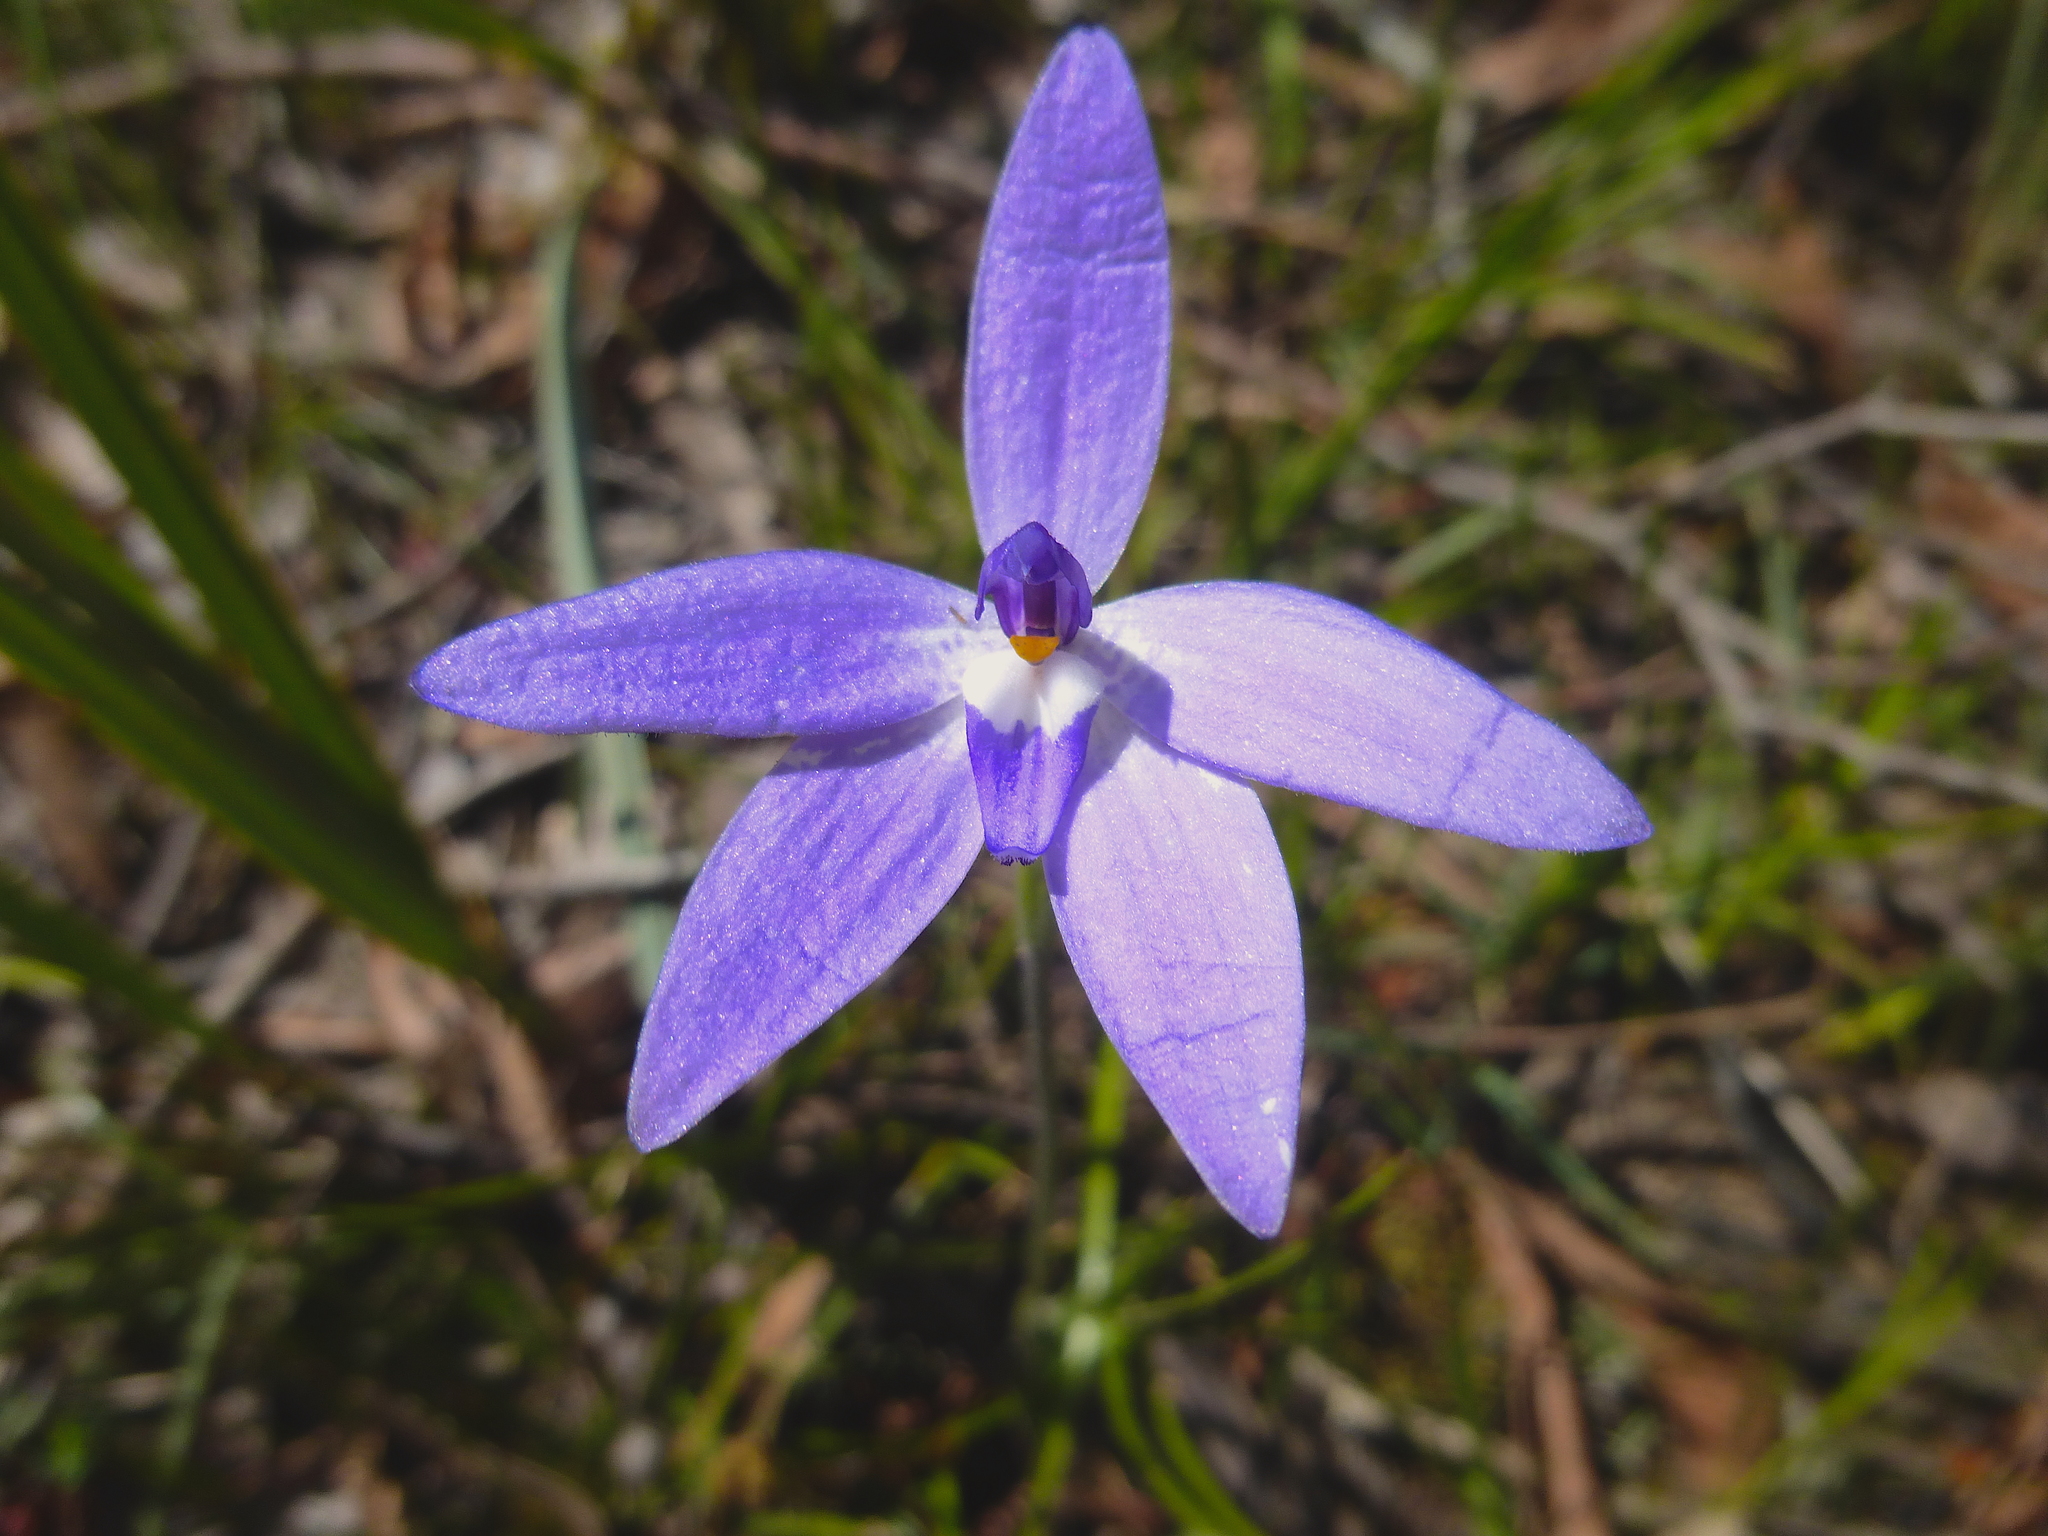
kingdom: Plantae
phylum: Tracheophyta
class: Liliopsida
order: Asparagales
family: Orchidaceae
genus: Caladenia
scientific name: Caladenia major
